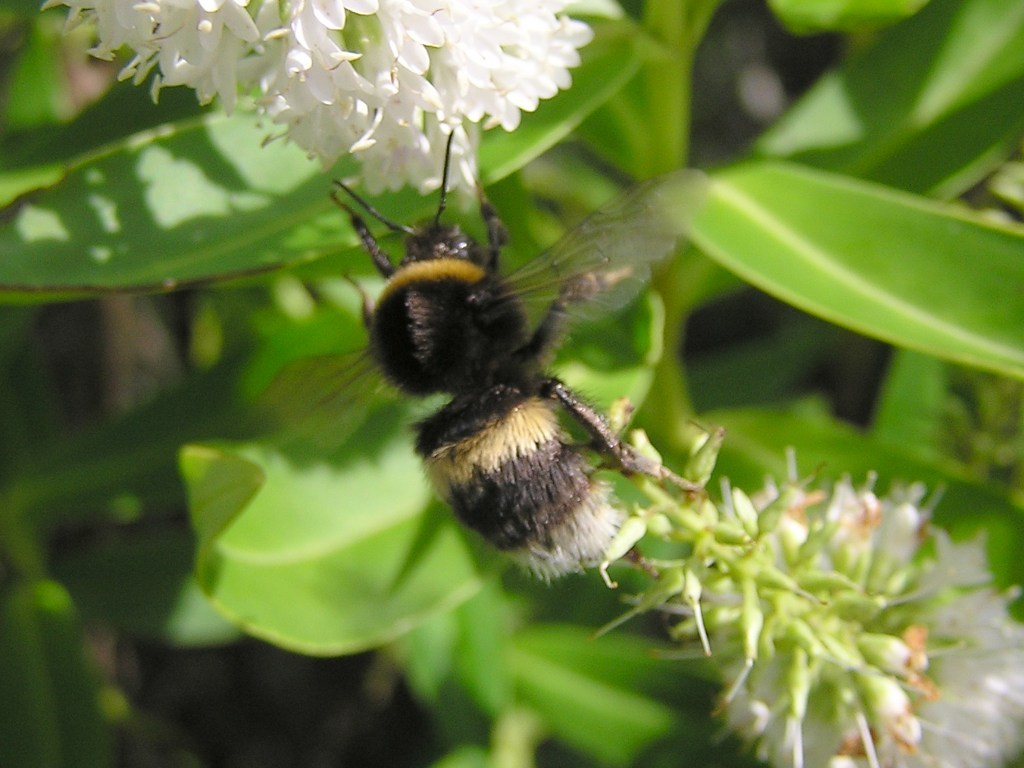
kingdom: Animalia
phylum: Arthropoda
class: Insecta
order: Hymenoptera
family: Apidae
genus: Bombus
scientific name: Bombus terrestris
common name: Buff-tailed bumblebee
